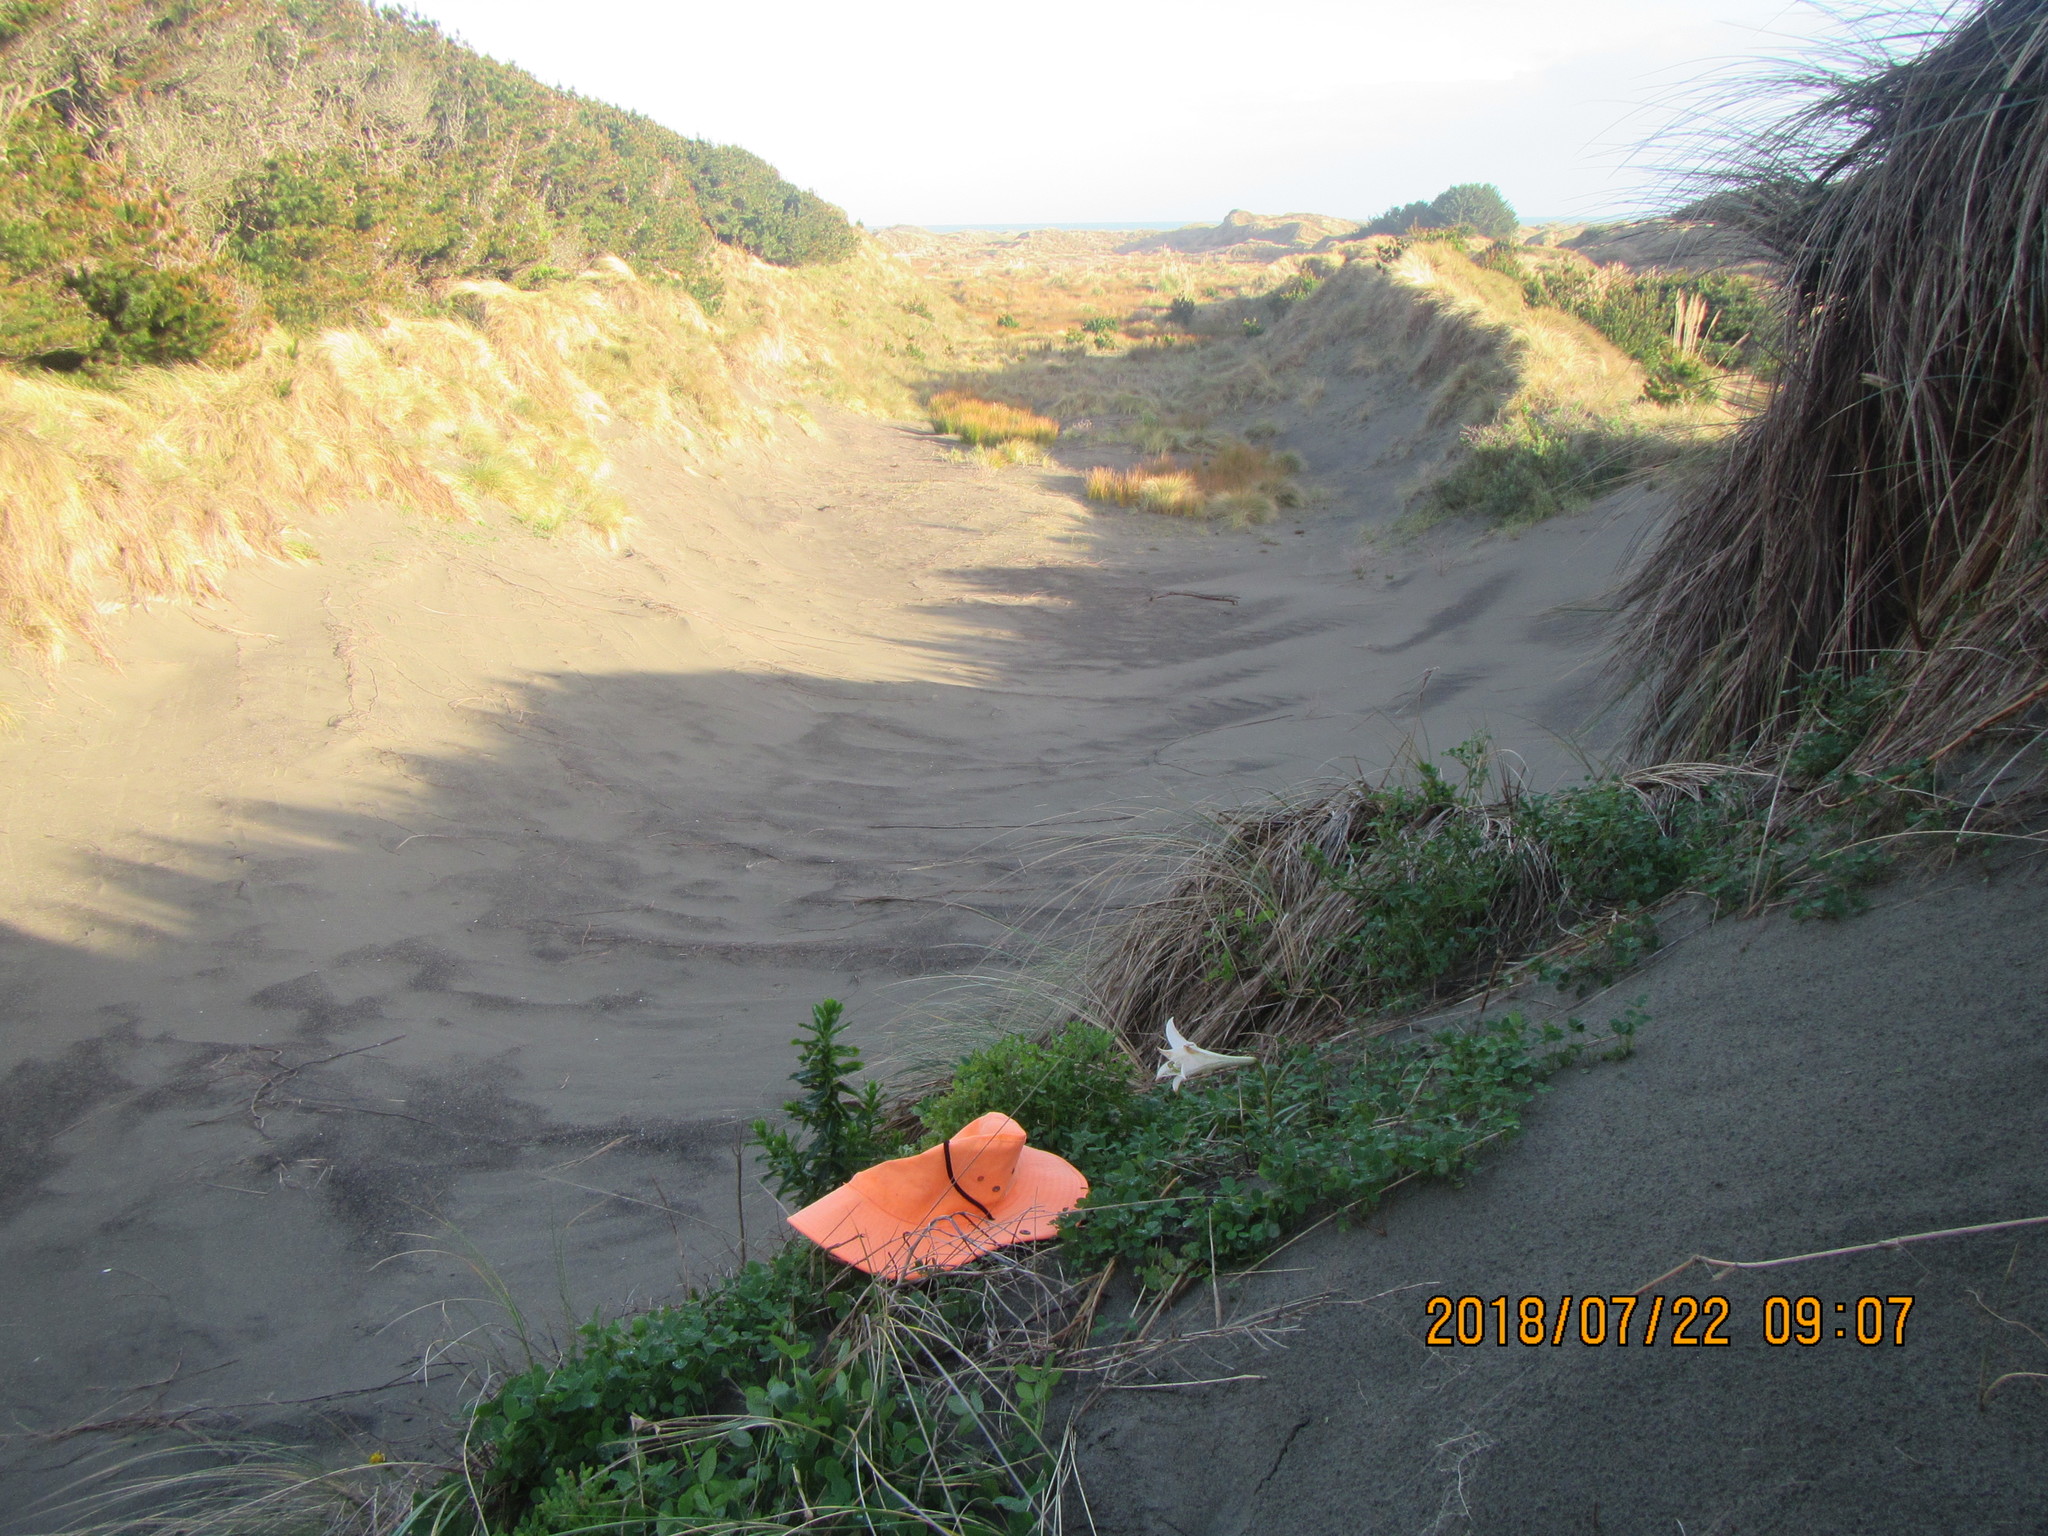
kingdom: Plantae
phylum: Tracheophyta
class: Magnoliopsida
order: Asterales
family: Asteraceae
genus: Senecio
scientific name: Senecio elegans
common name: Purple groundsel
